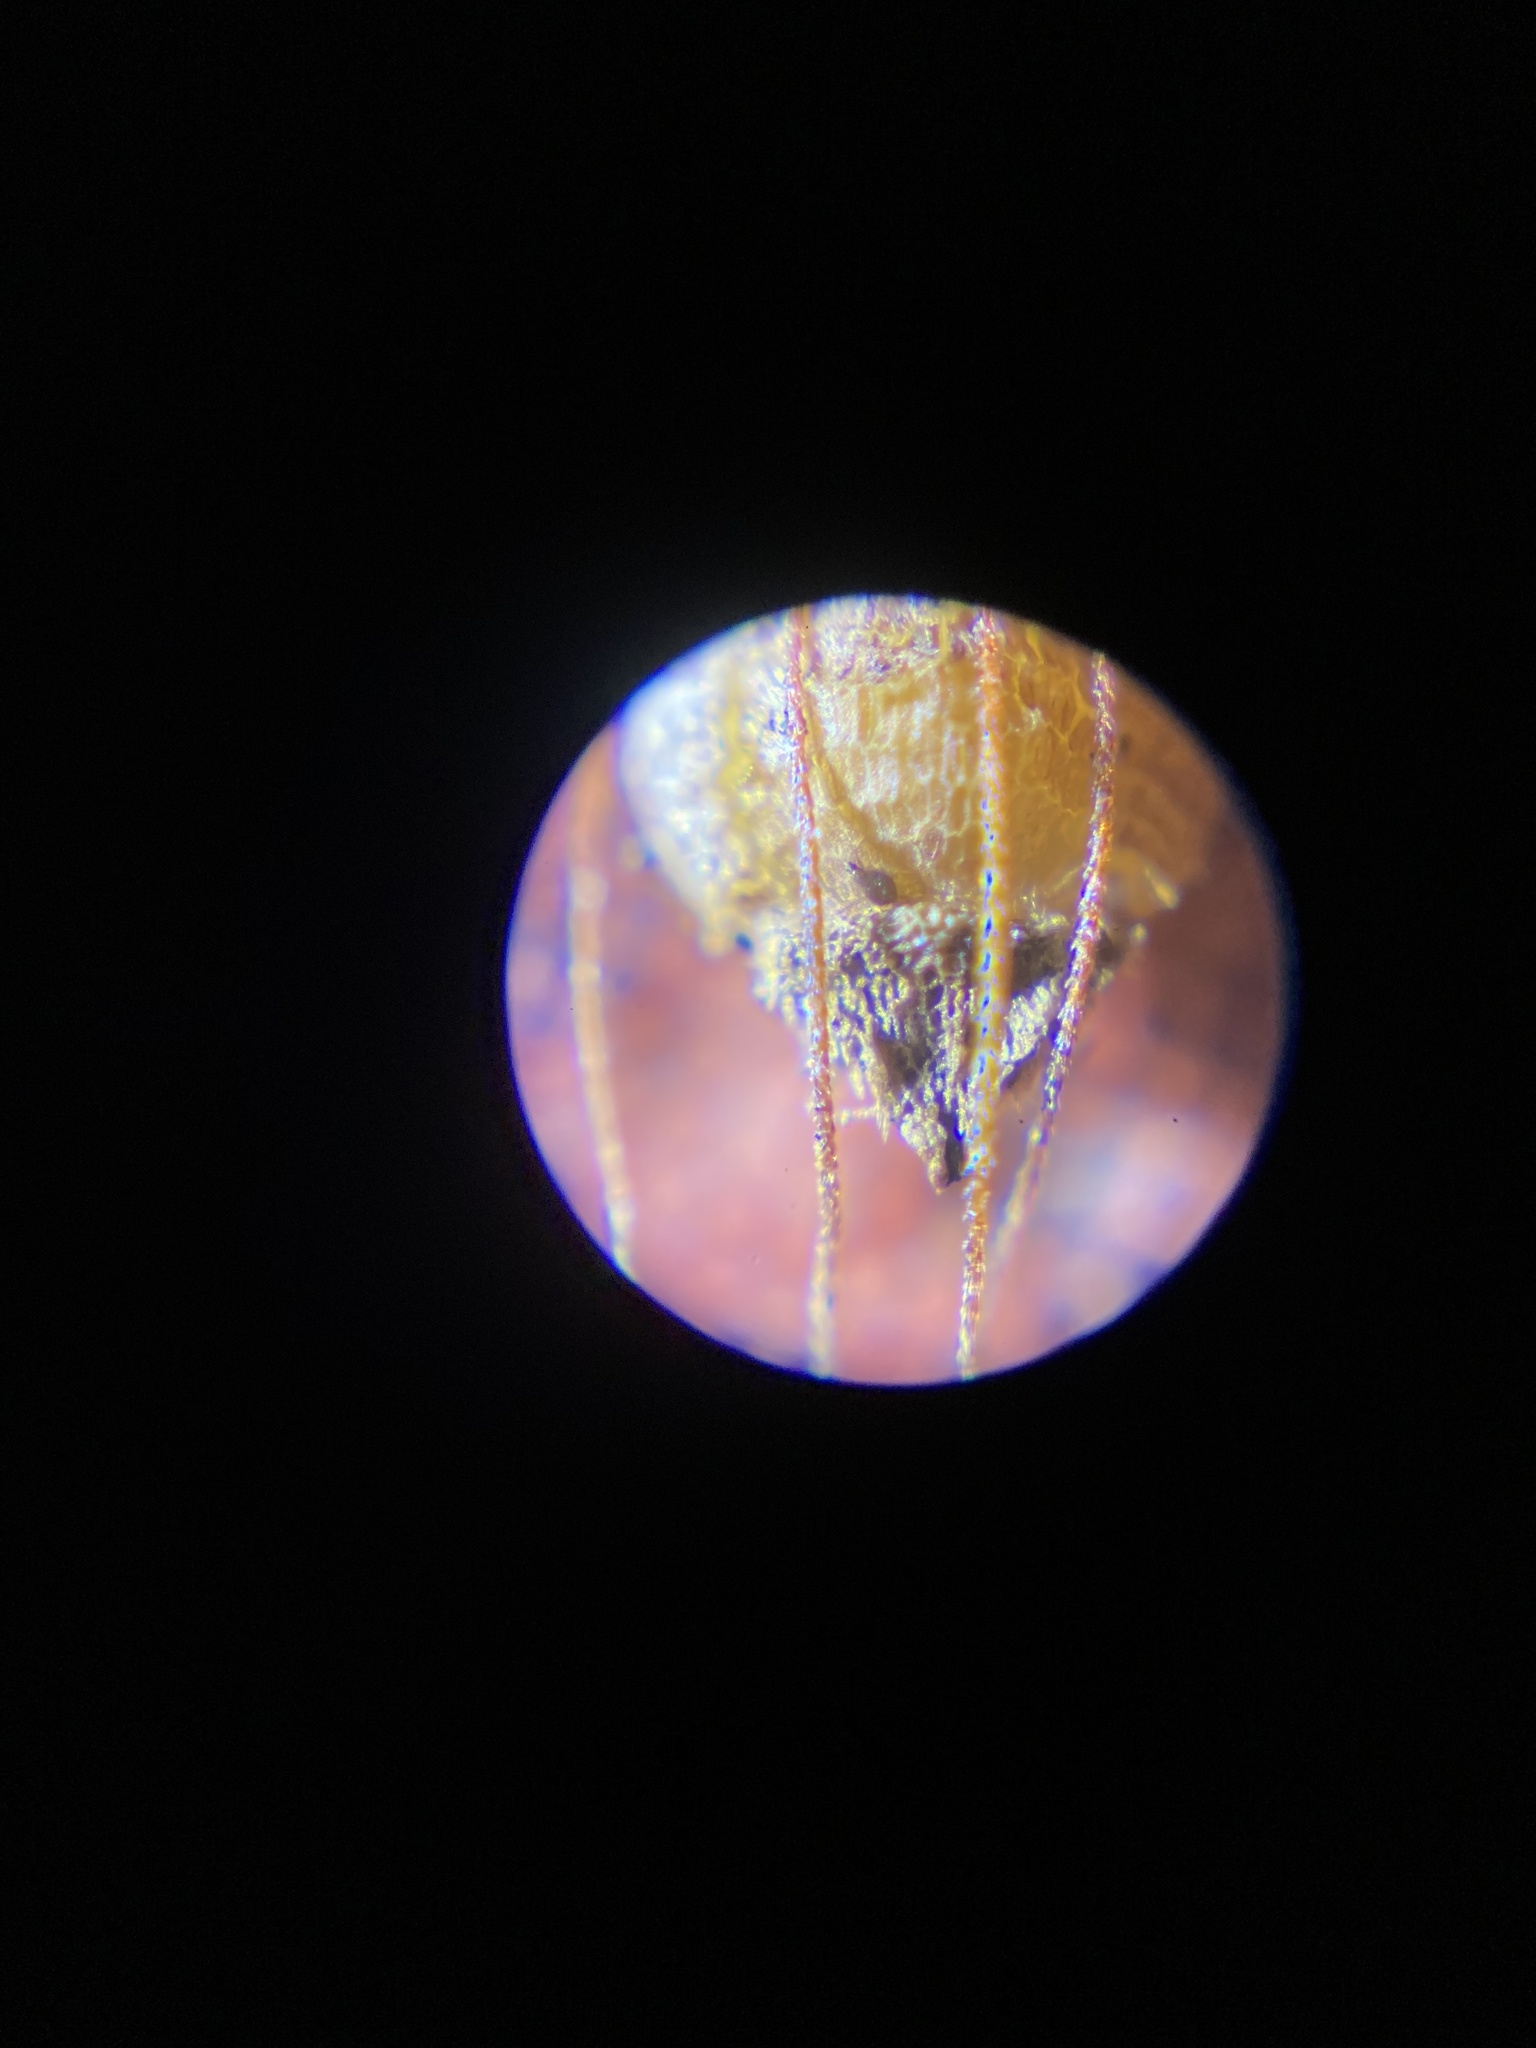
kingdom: Plantae
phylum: Tracheophyta
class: Liliopsida
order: Poales
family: Cyperaceae
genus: Rhynchospora
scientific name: Rhynchospora caduca
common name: Anglestem beaksedge
